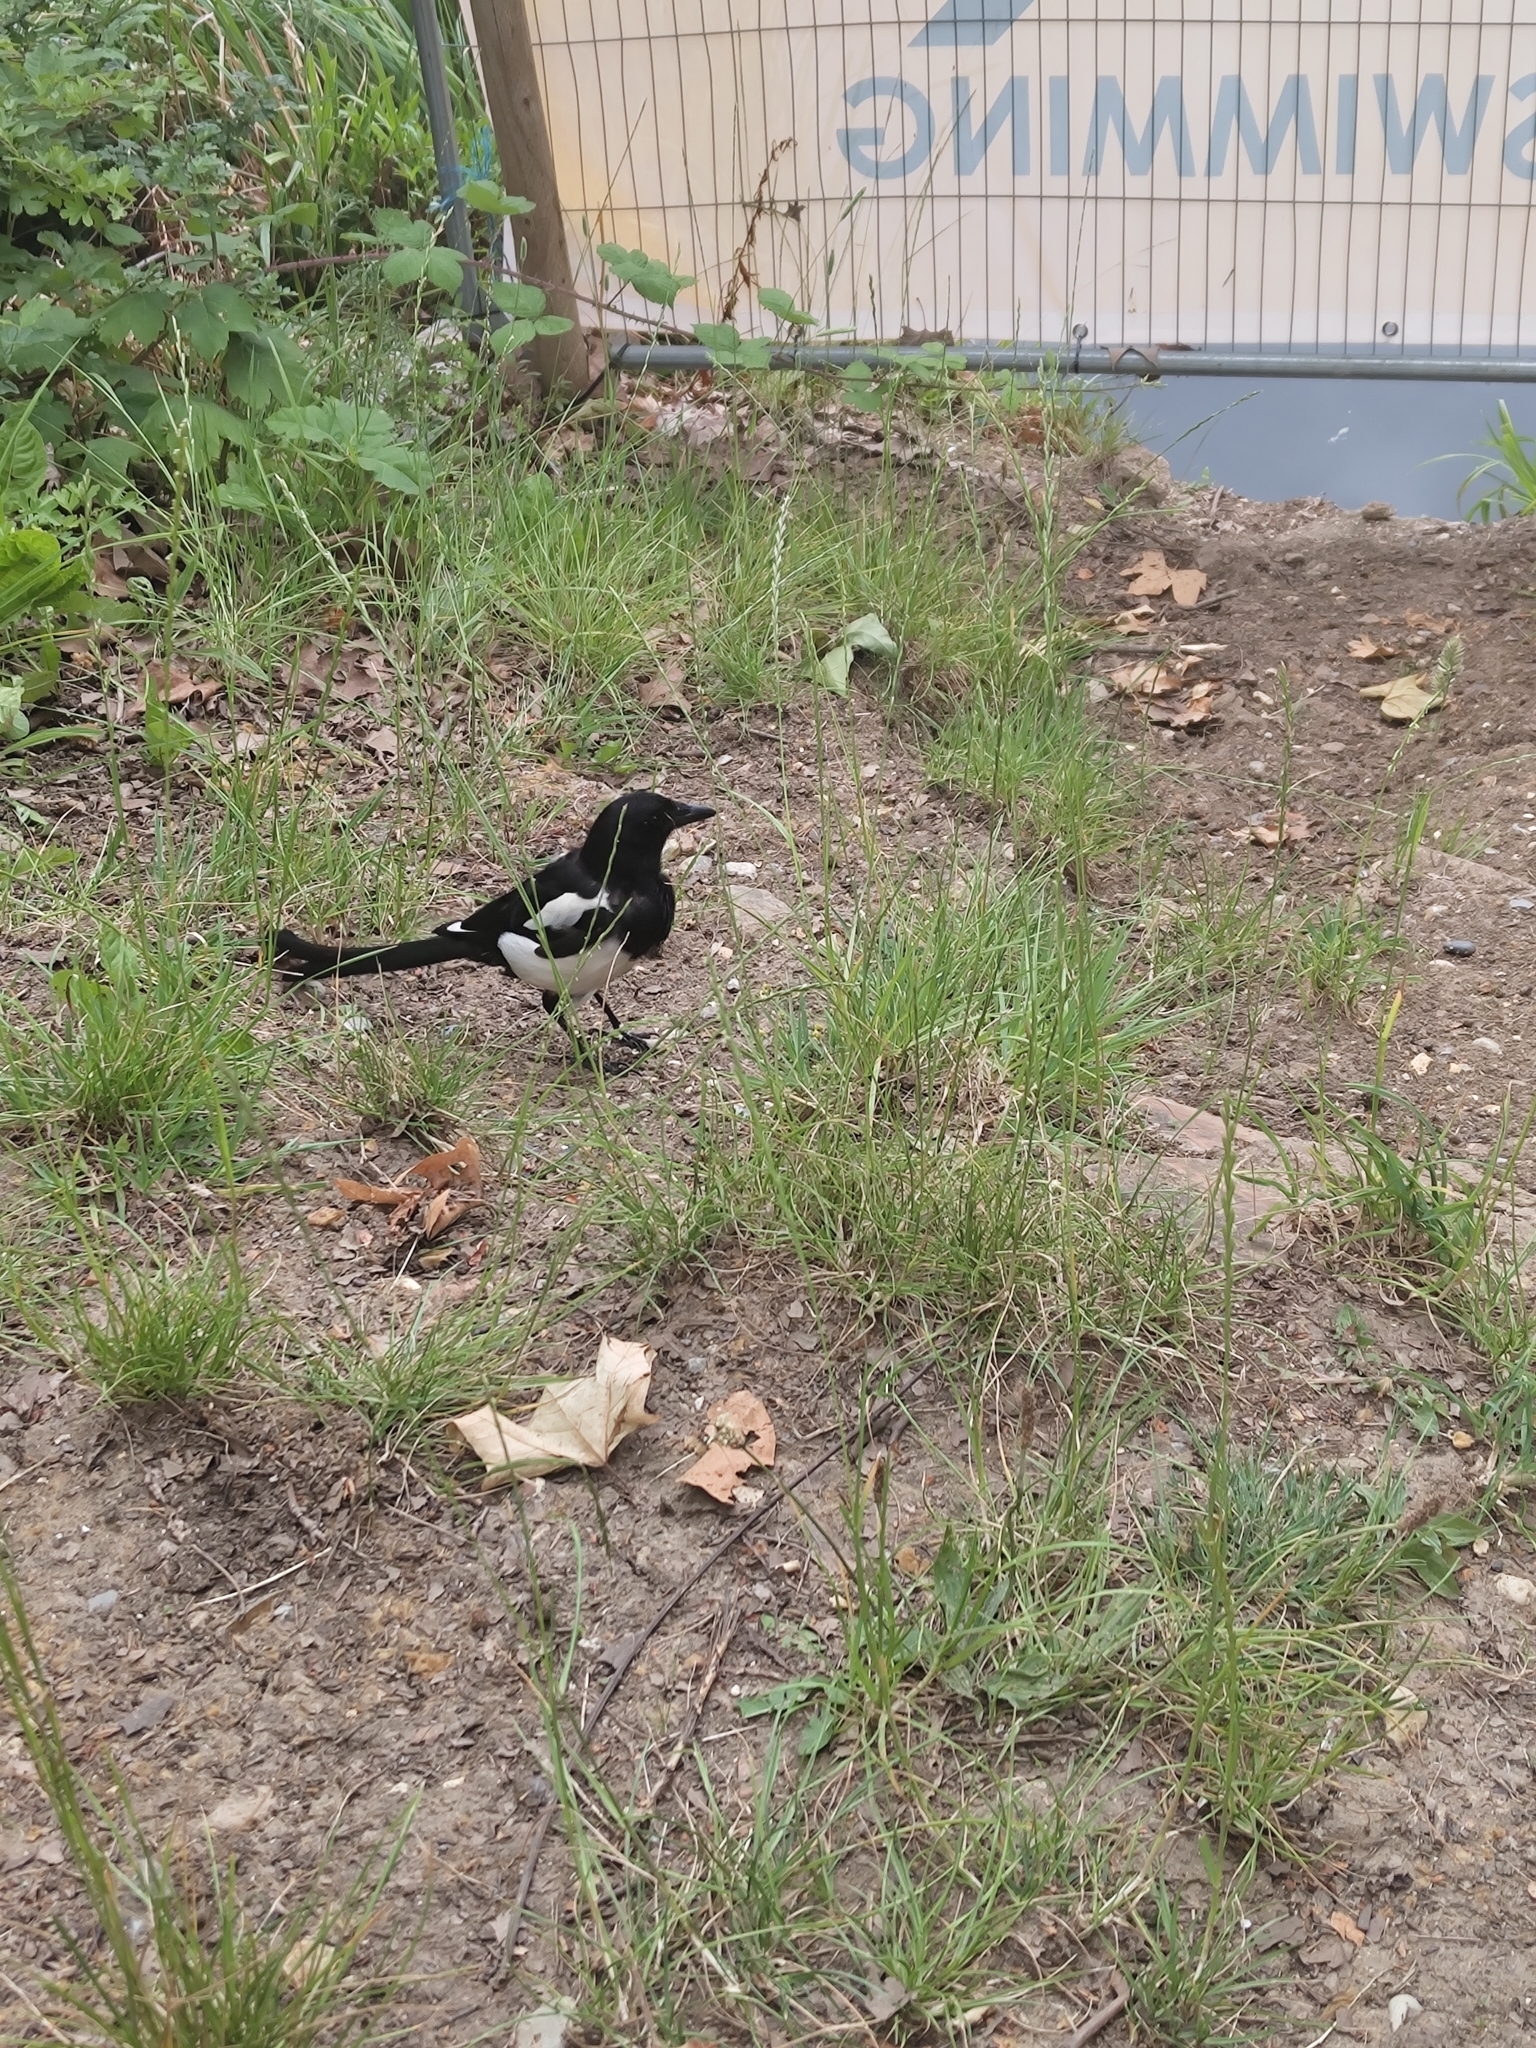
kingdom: Animalia
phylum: Chordata
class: Aves
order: Passeriformes
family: Corvidae
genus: Pica
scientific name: Pica pica
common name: Eurasian magpie
